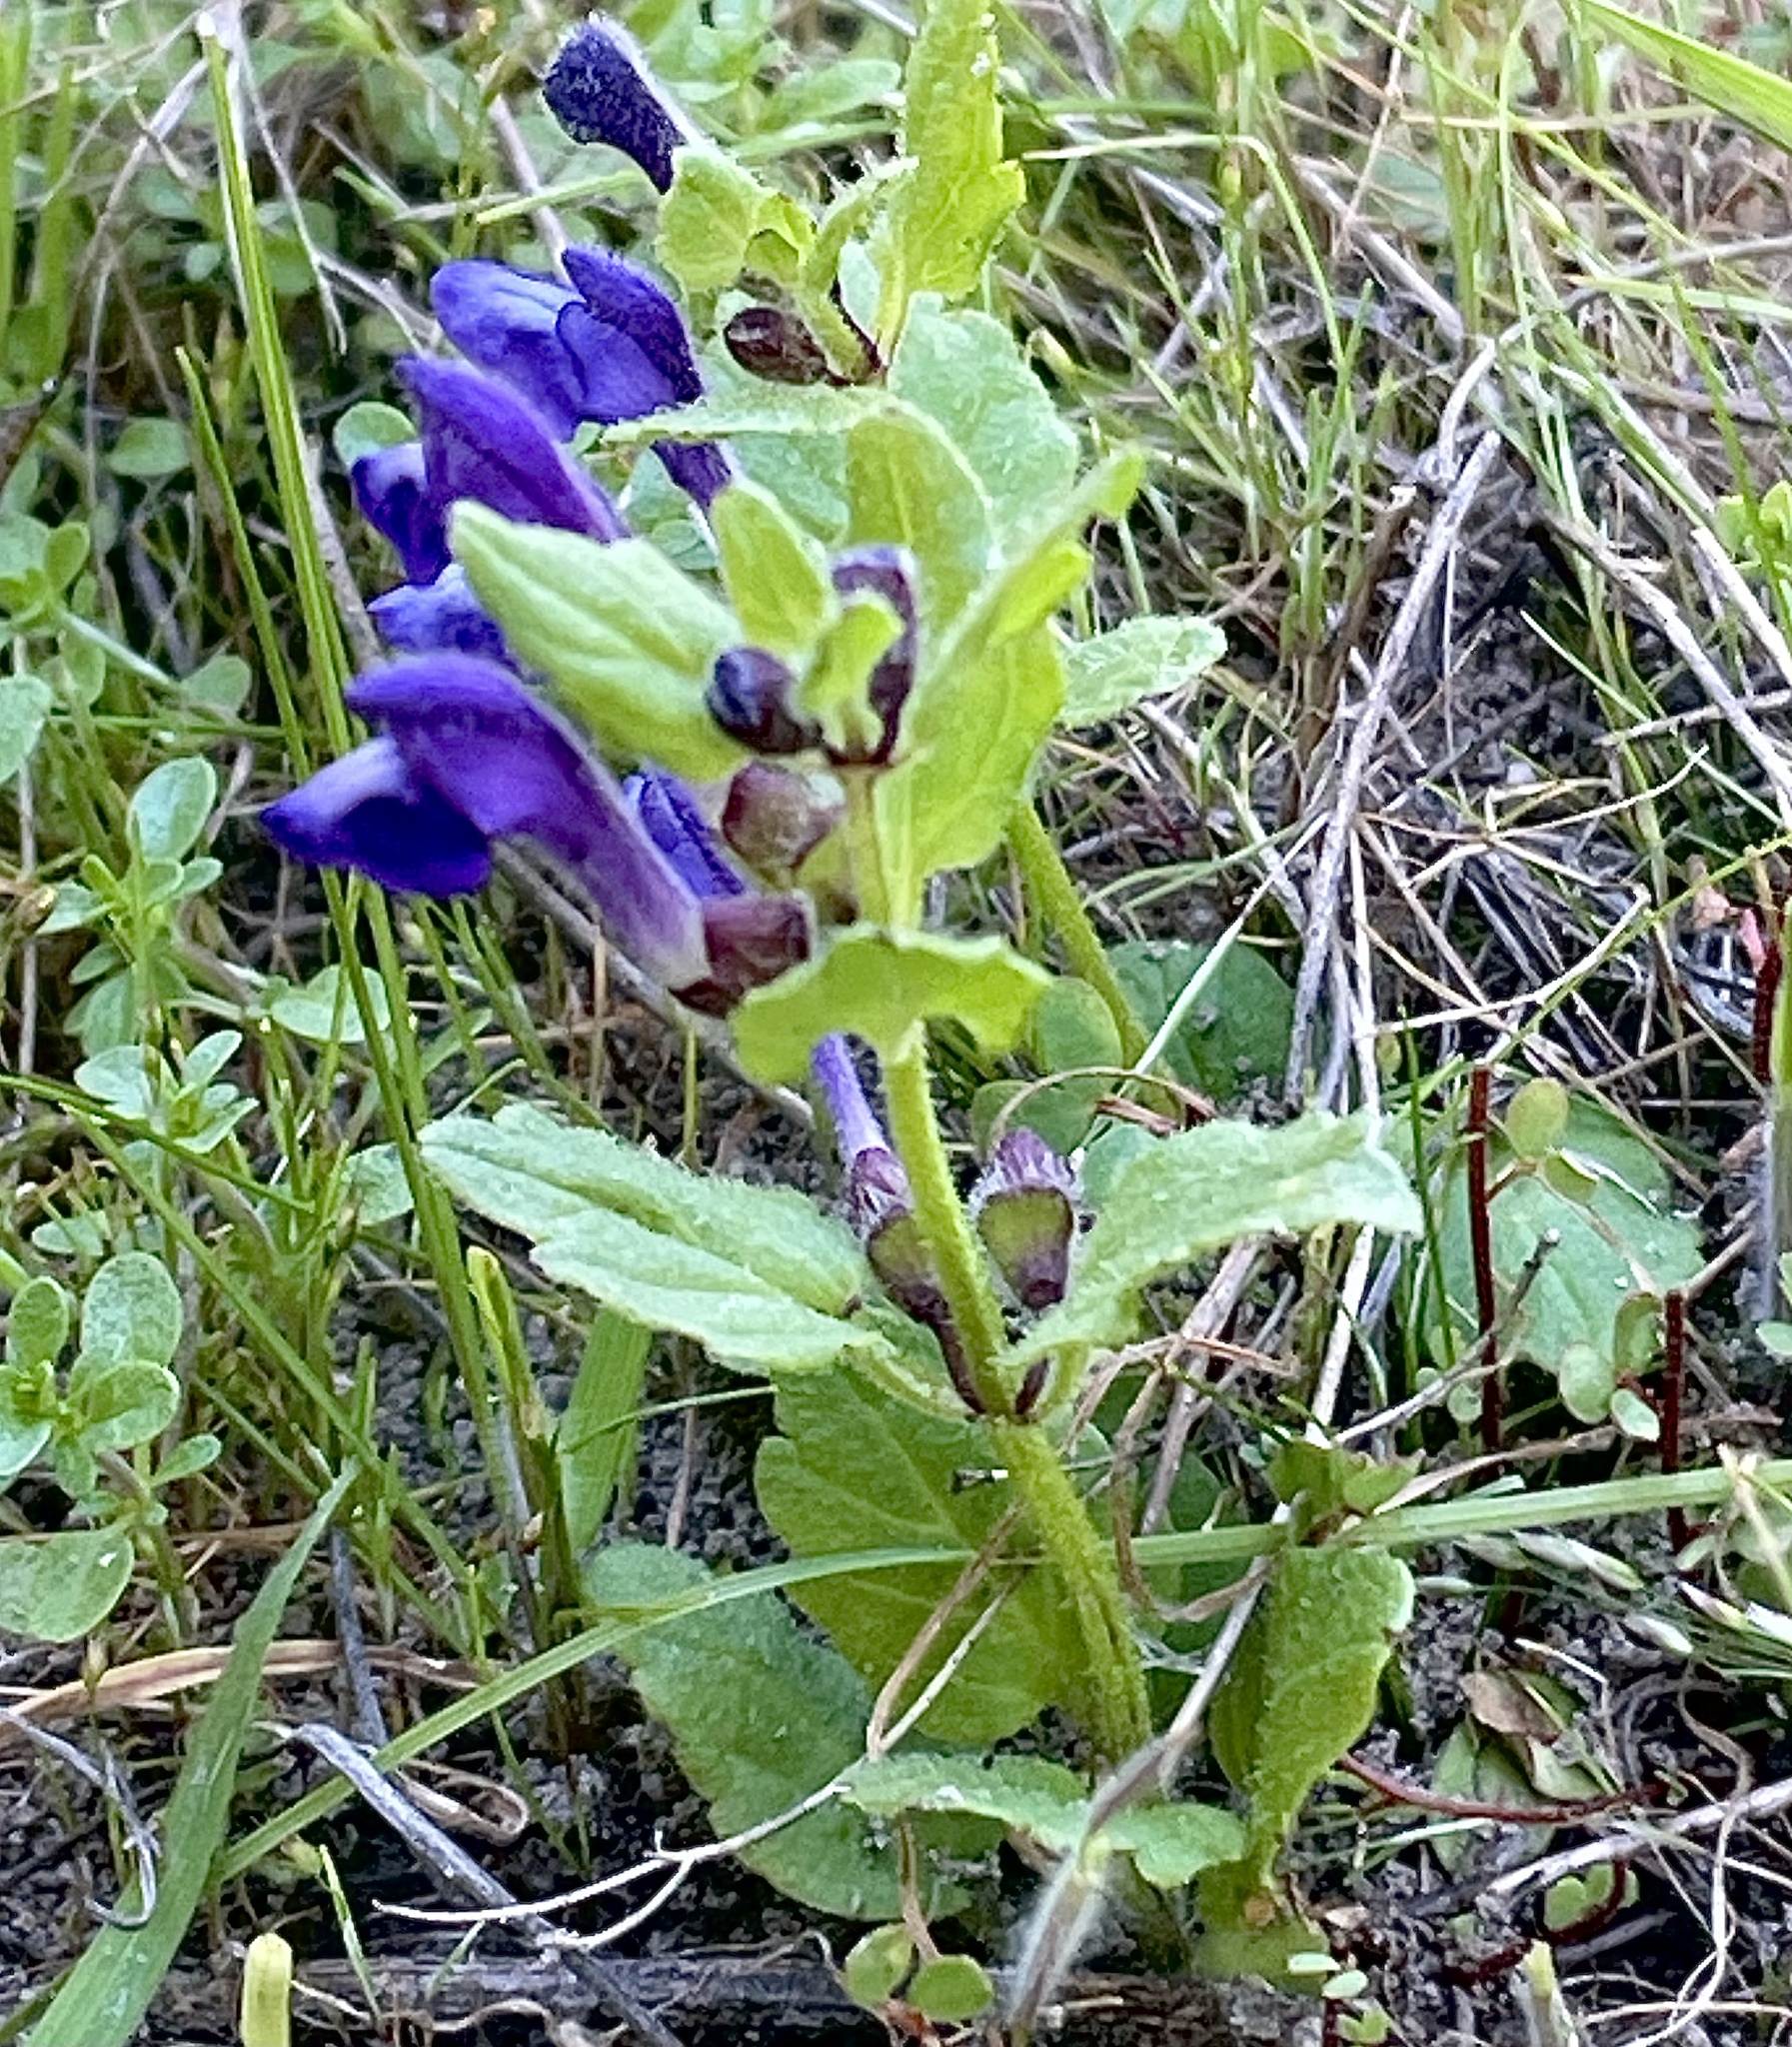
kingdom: Plantae
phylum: Tracheophyta
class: Magnoliopsida
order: Lamiales
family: Lamiaceae
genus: Scutellaria
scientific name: Scutellaria tuberosa
